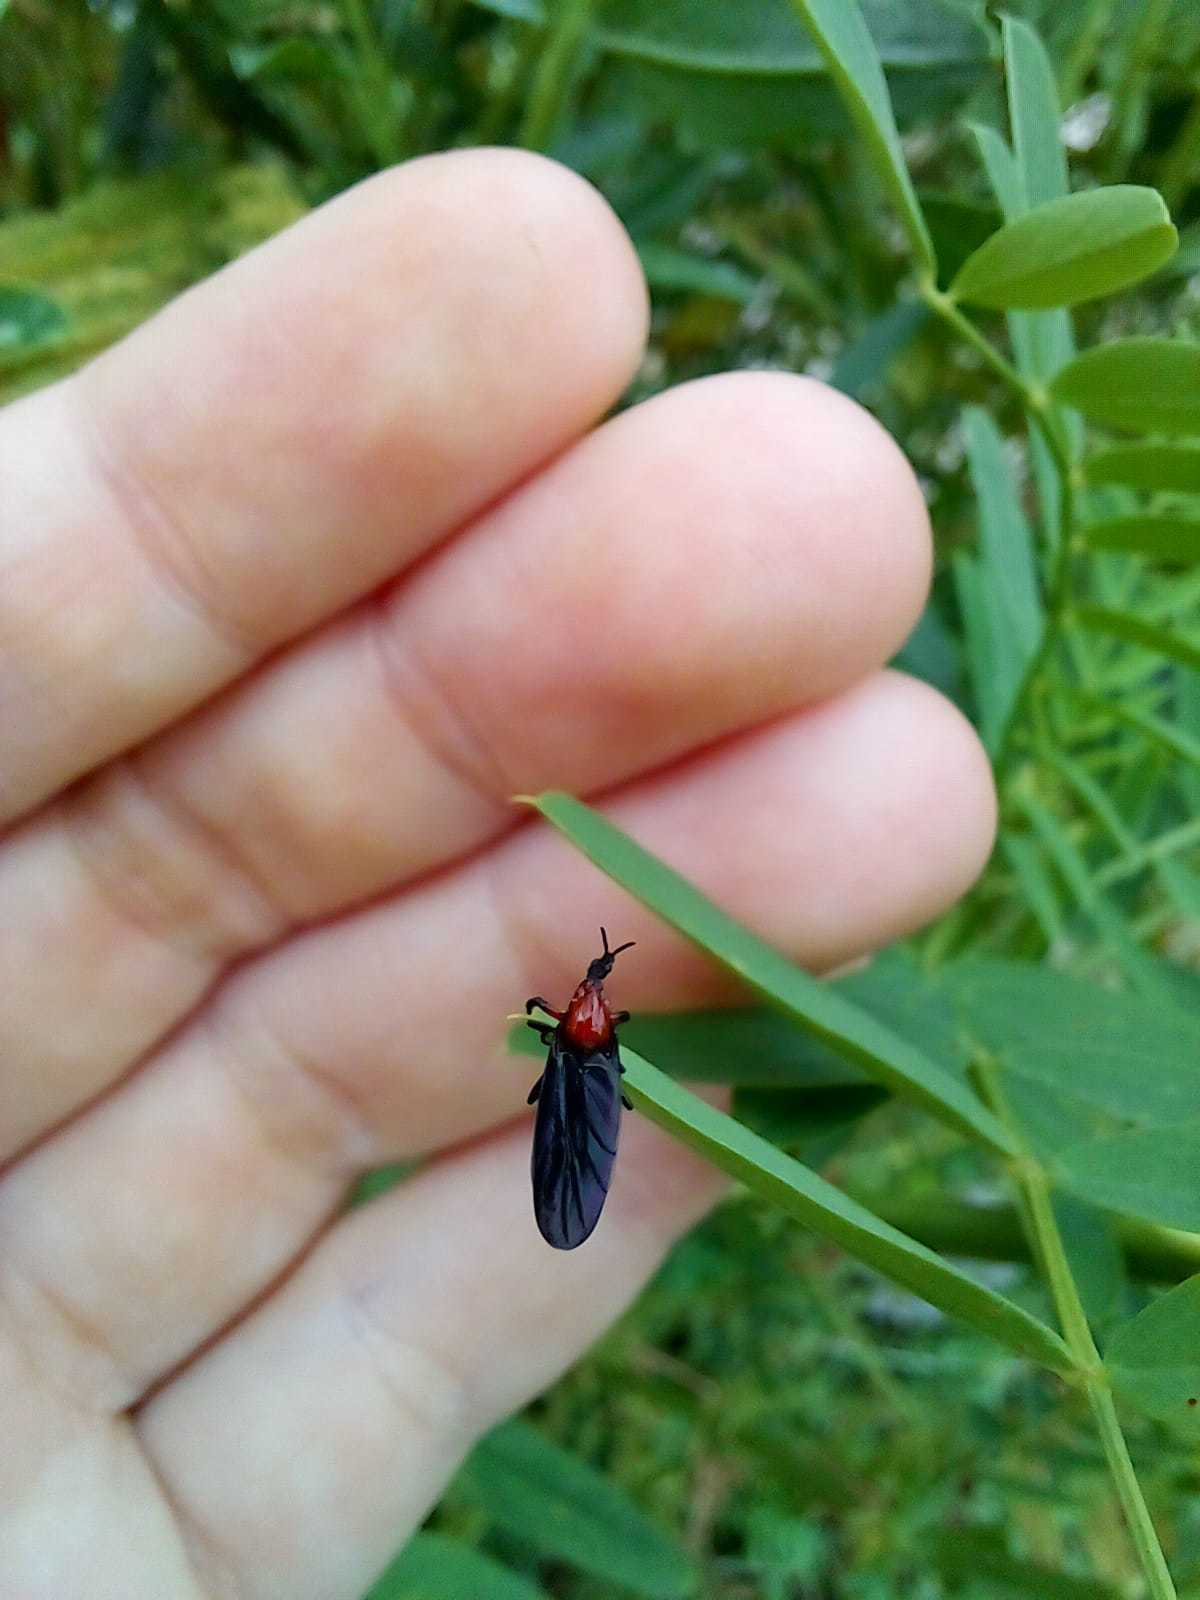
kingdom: Animalia
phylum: Arthropoda
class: Insecta
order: Diptera
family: Bibionidae
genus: Dilophus
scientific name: Dilophus pectoralis
